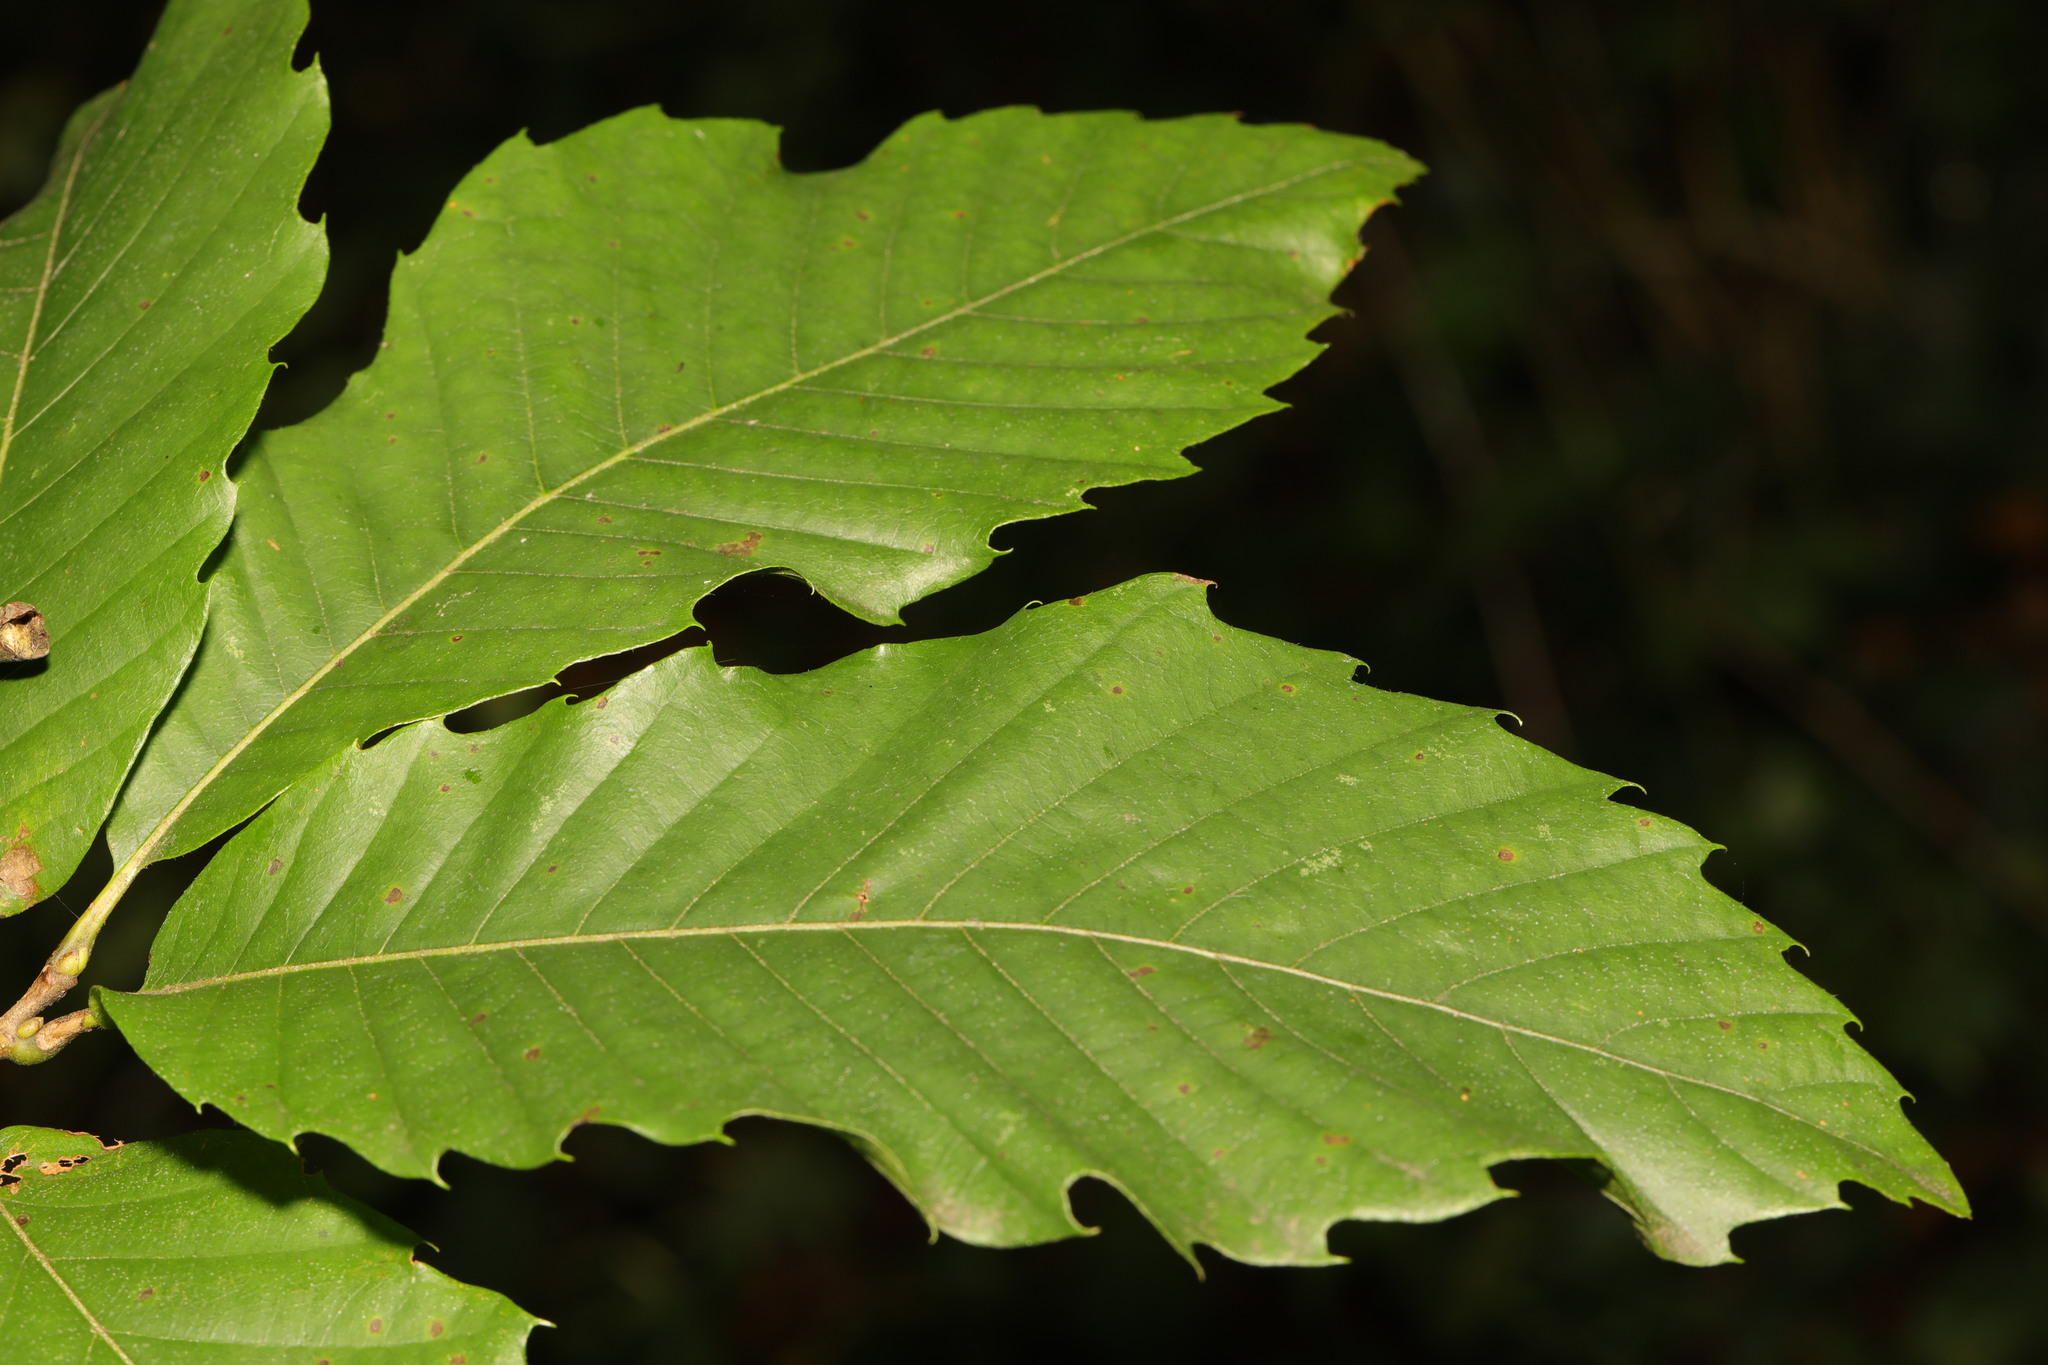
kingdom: Plantae
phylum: Tracheophyta
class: Magnoliopsida
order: Fagales
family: Fagaceae
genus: Castanea
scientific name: Castanea sativa
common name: Sweet chestnut
